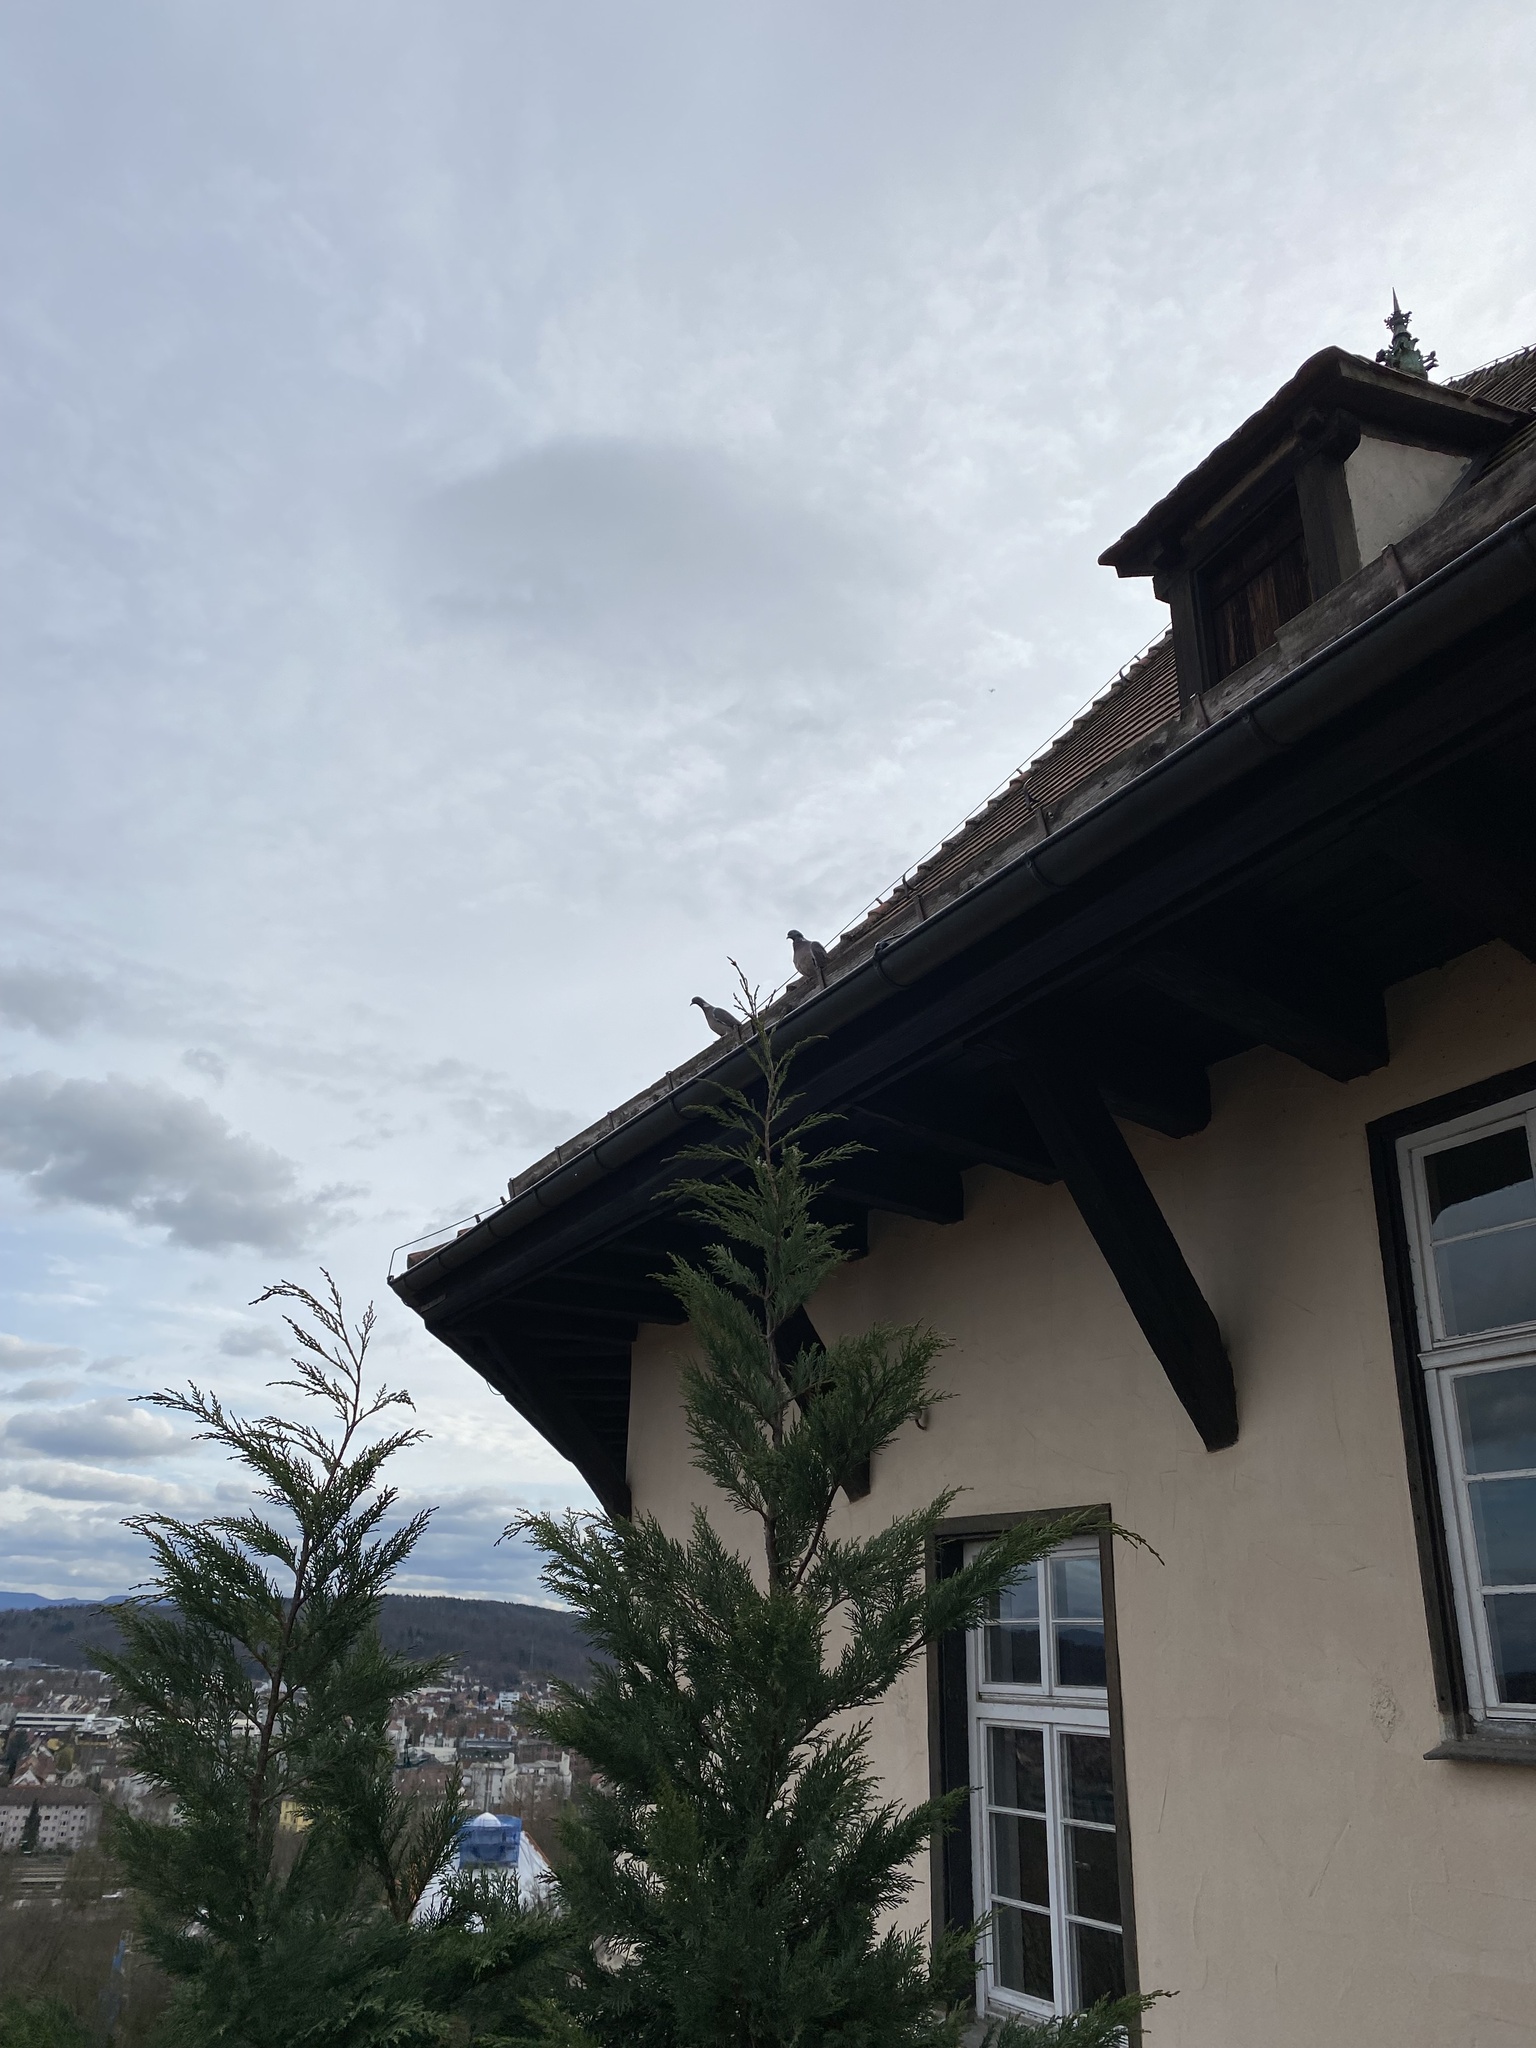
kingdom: Animalia
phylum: Chordata
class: Aves
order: Columbiformes
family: Columbidae
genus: Columba
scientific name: Columba palumbus
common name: Common wood pigeon
